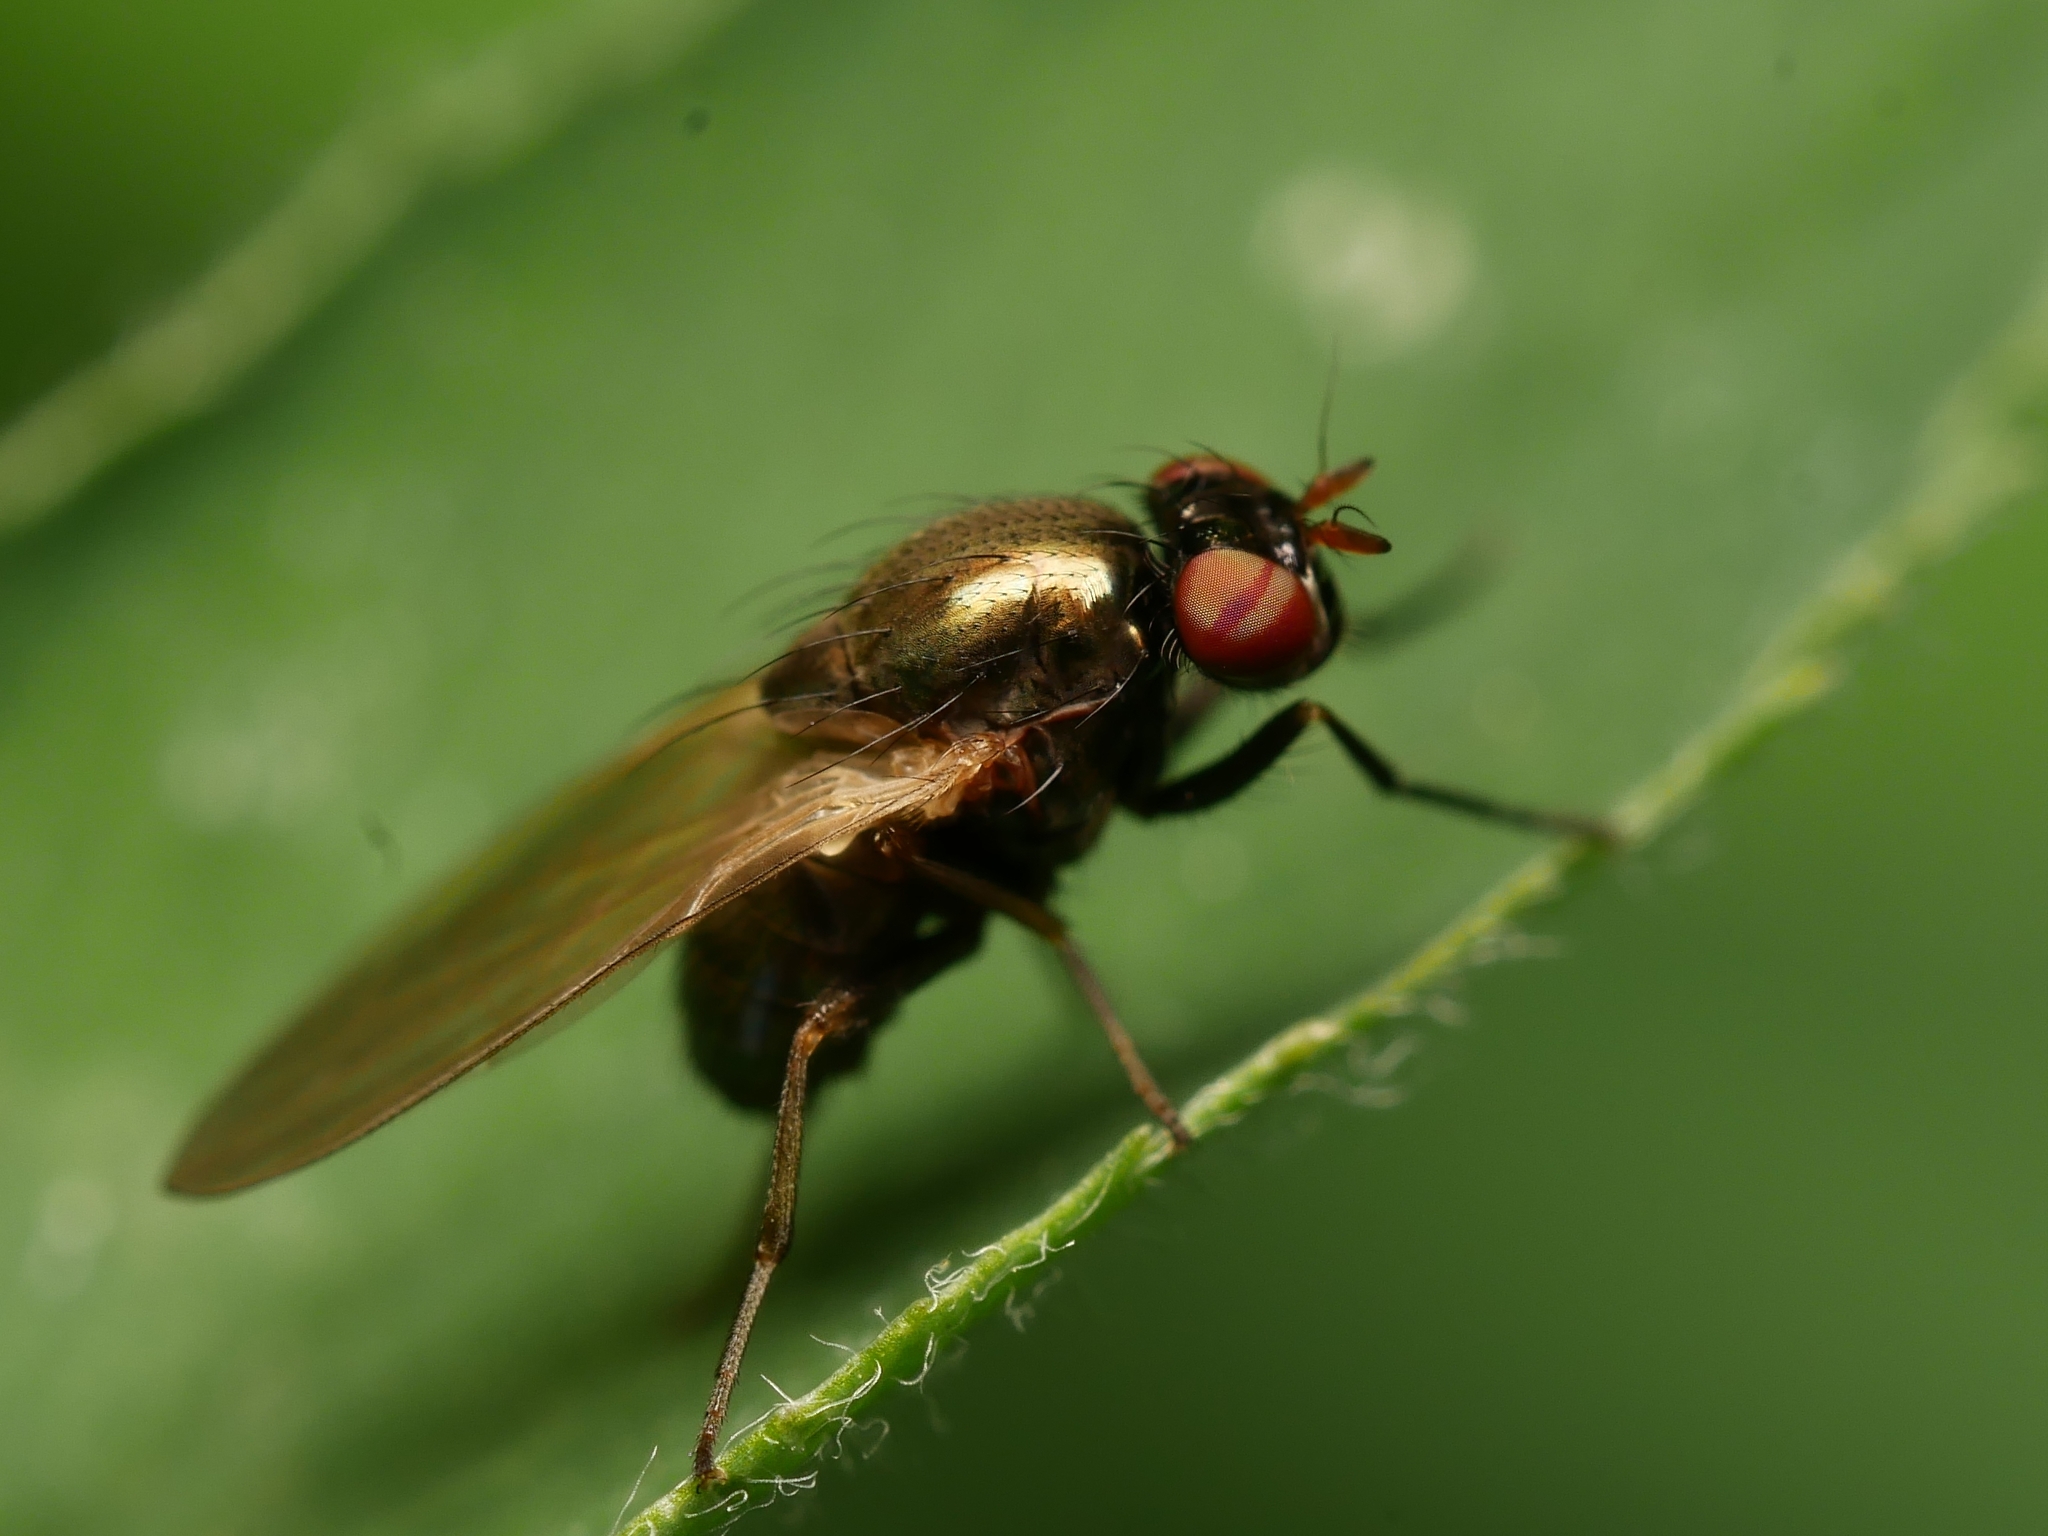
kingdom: Animalia
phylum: Arthropoda
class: Insecta
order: Diptera
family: Lauxaniidae
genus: Calliopum
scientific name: Calliopum
